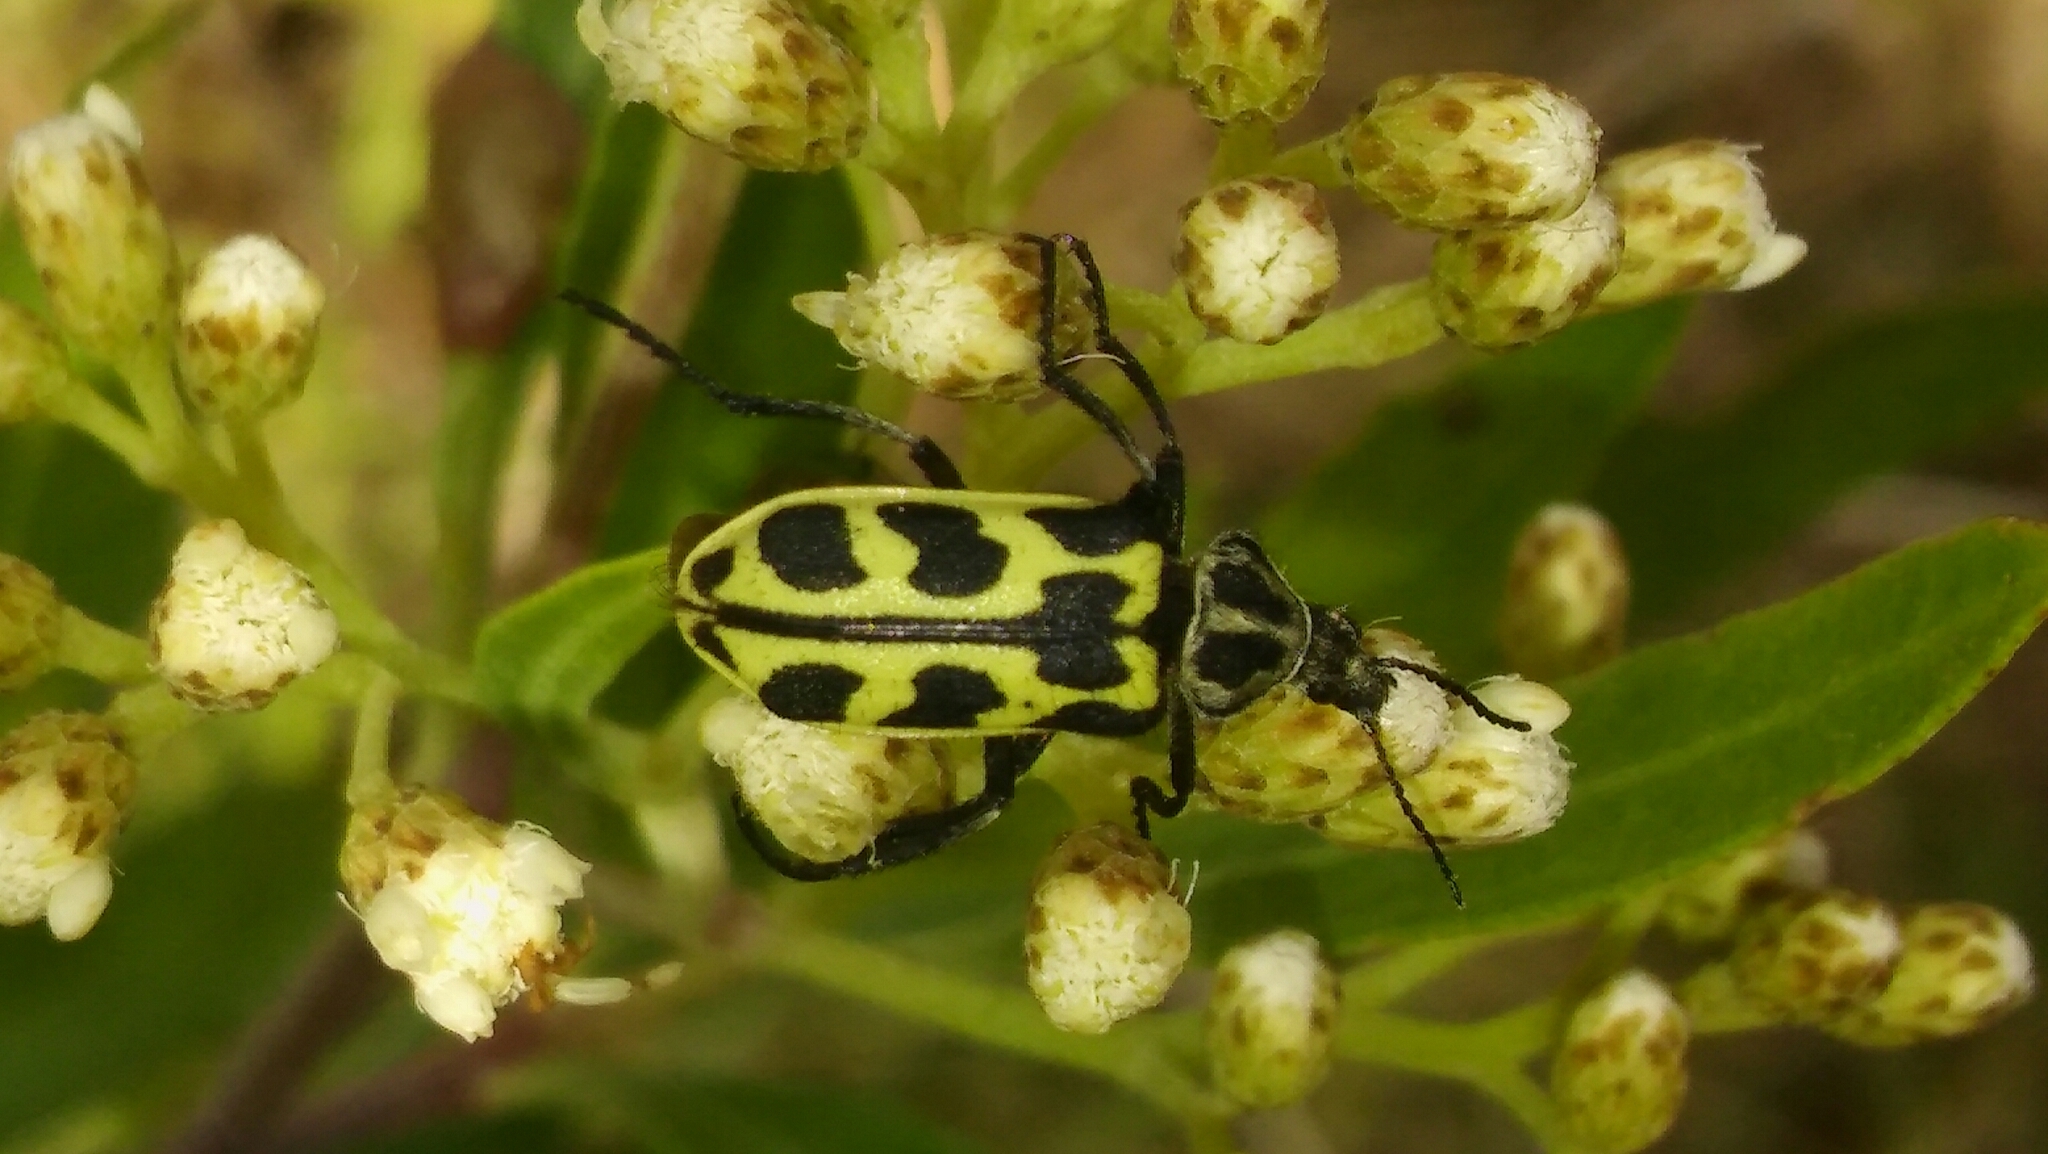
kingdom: Animalia
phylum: Arthropoda
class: Insecta
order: Coleoptera
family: Melyridae
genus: Astylus
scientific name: Astylus atromaculatus
